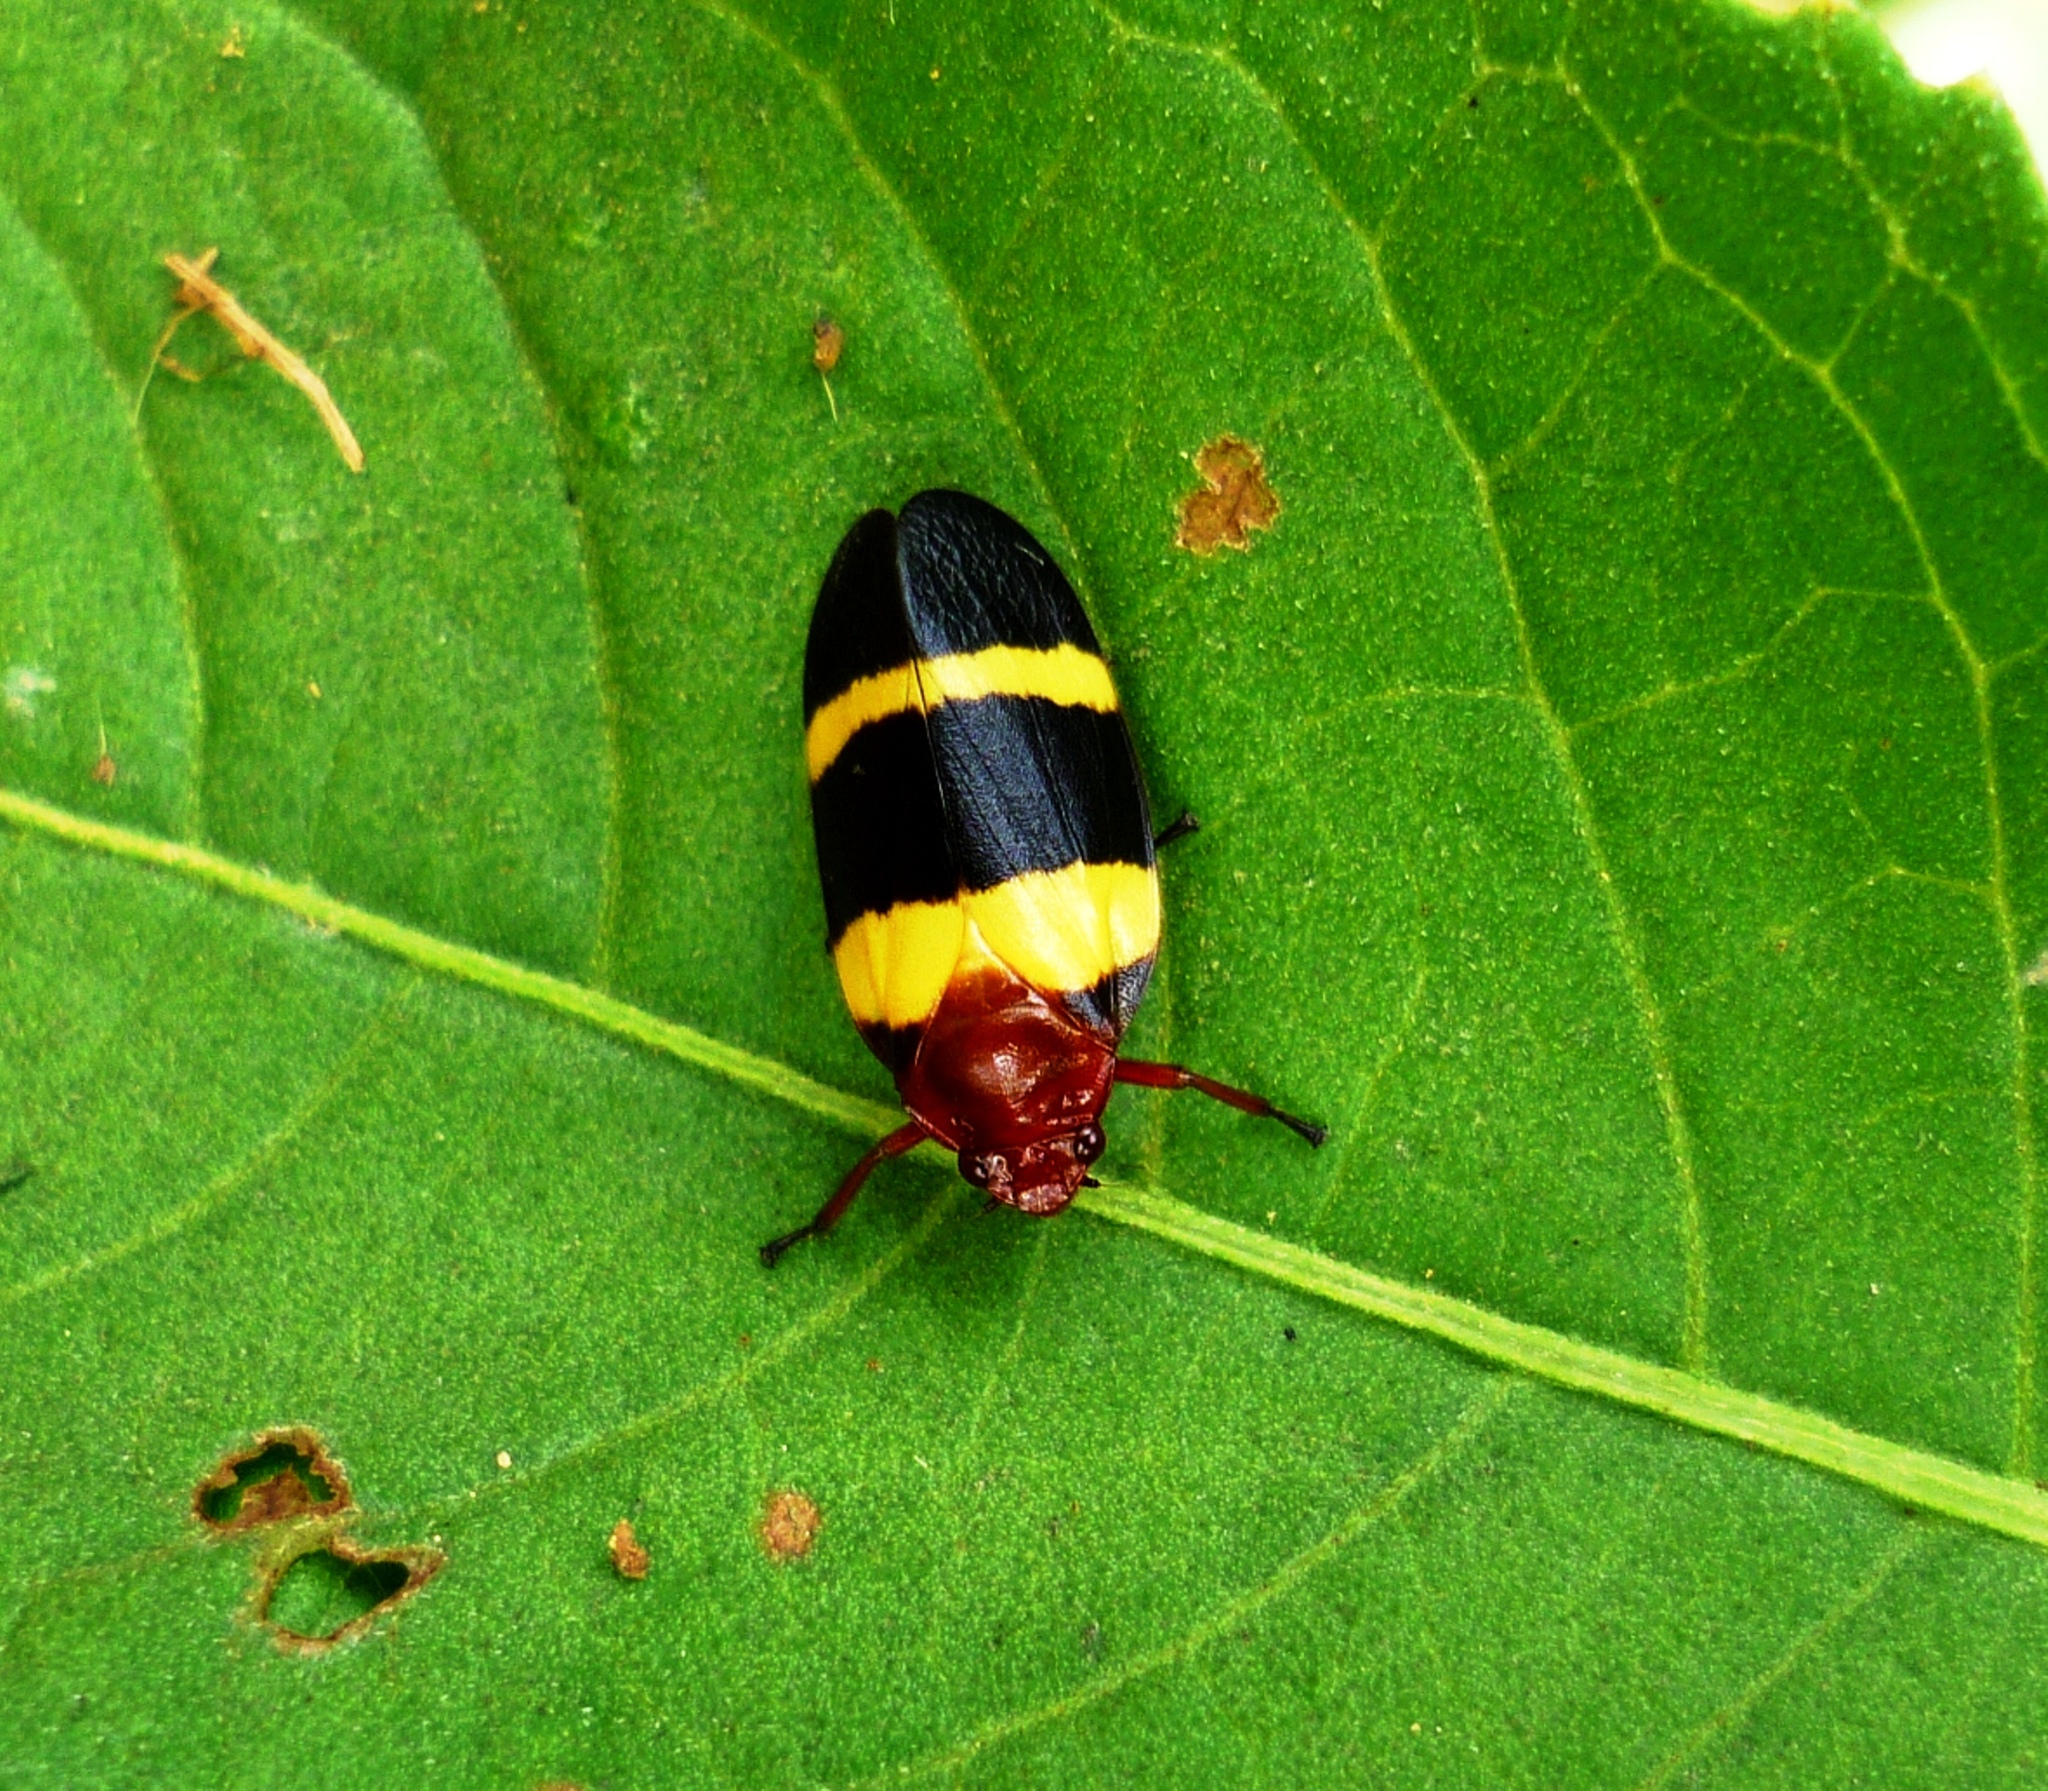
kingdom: Animalia
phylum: Arthropoda
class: Insecta
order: Hemiptera
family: Cercopidae
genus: Sphenorhina
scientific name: Sphenorhina rubra
